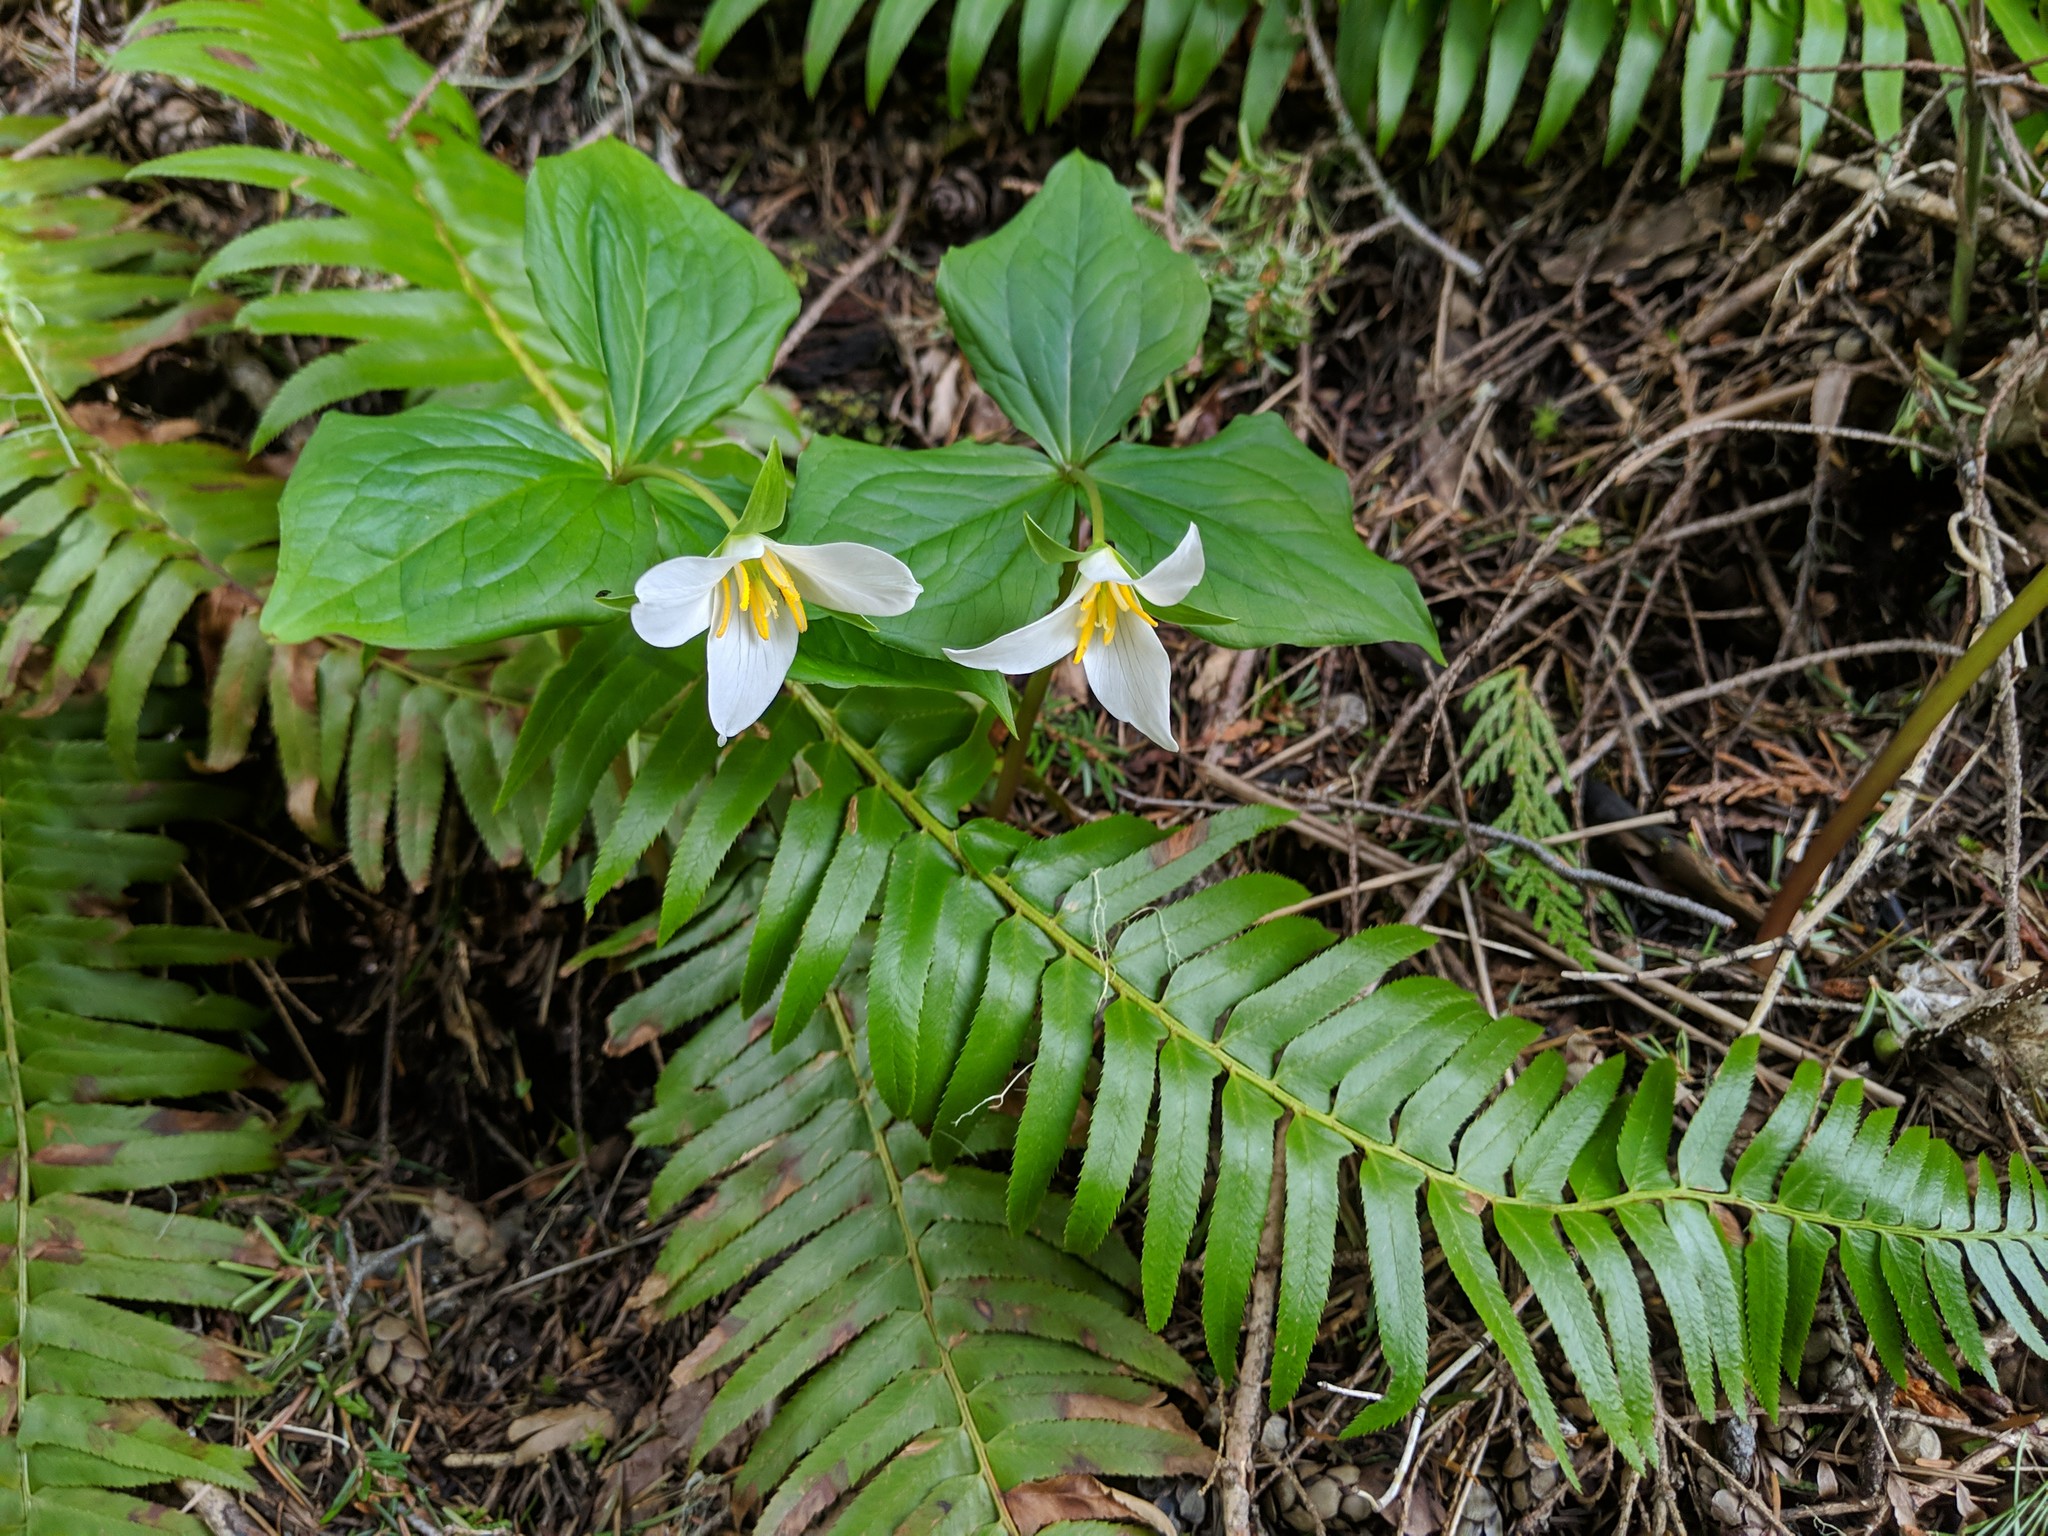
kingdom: Plantae
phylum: Tracheophyta
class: Liliopsida
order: Liliales
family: Melanthiaceae
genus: Trillium
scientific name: Trillium ovatum
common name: Pacific trillium
